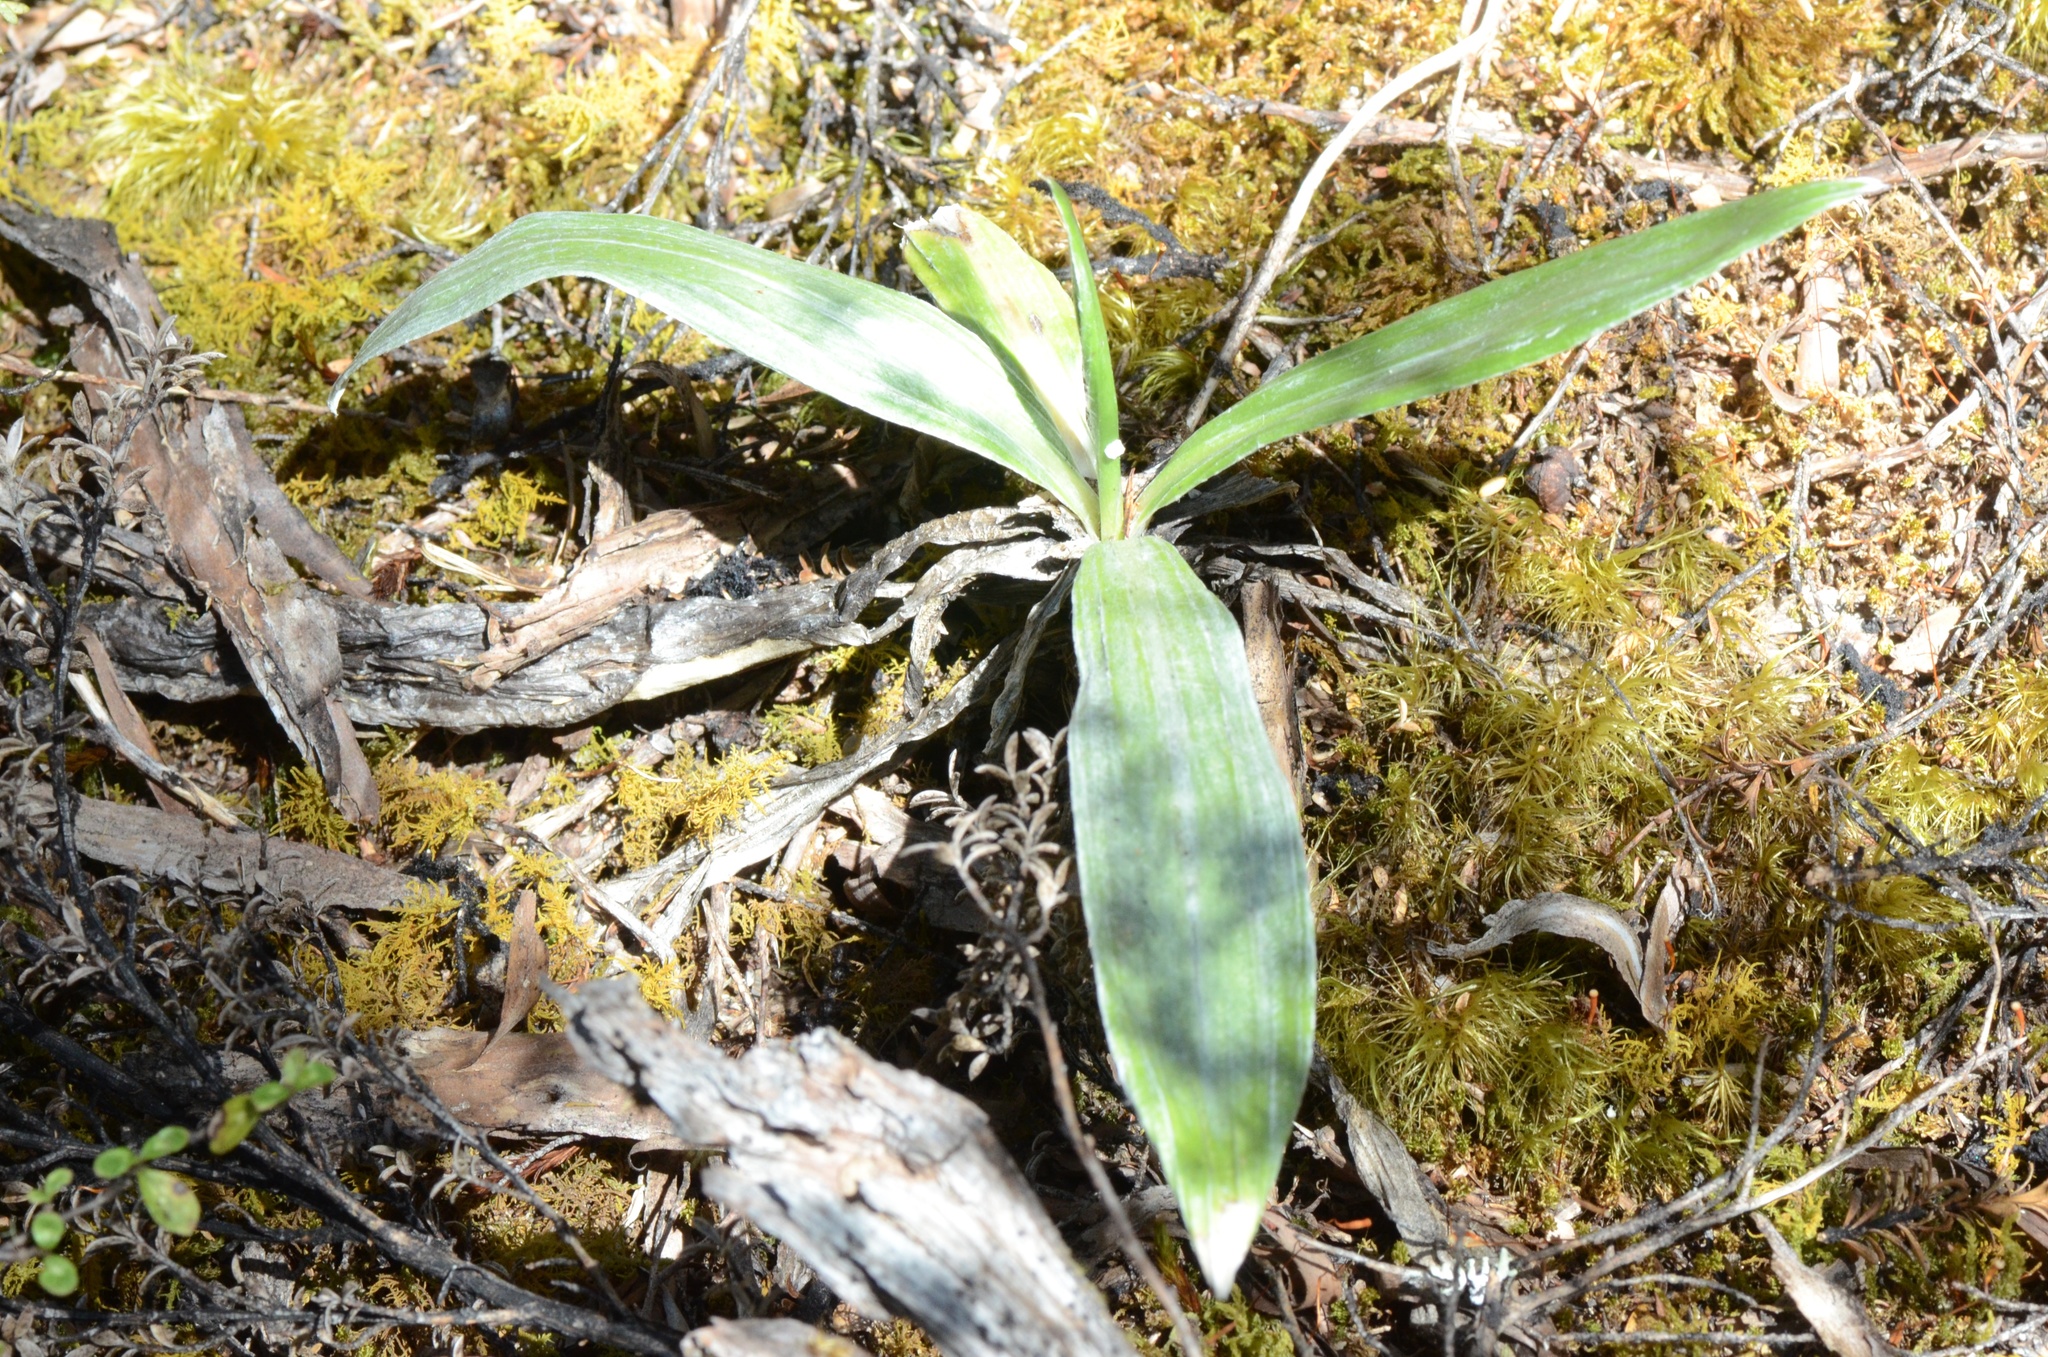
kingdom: Plantae
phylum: Tracheophyta
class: Magnoliopsida
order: Asterales
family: Asteraceae
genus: Celmisia
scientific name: Celmisia semicordata
